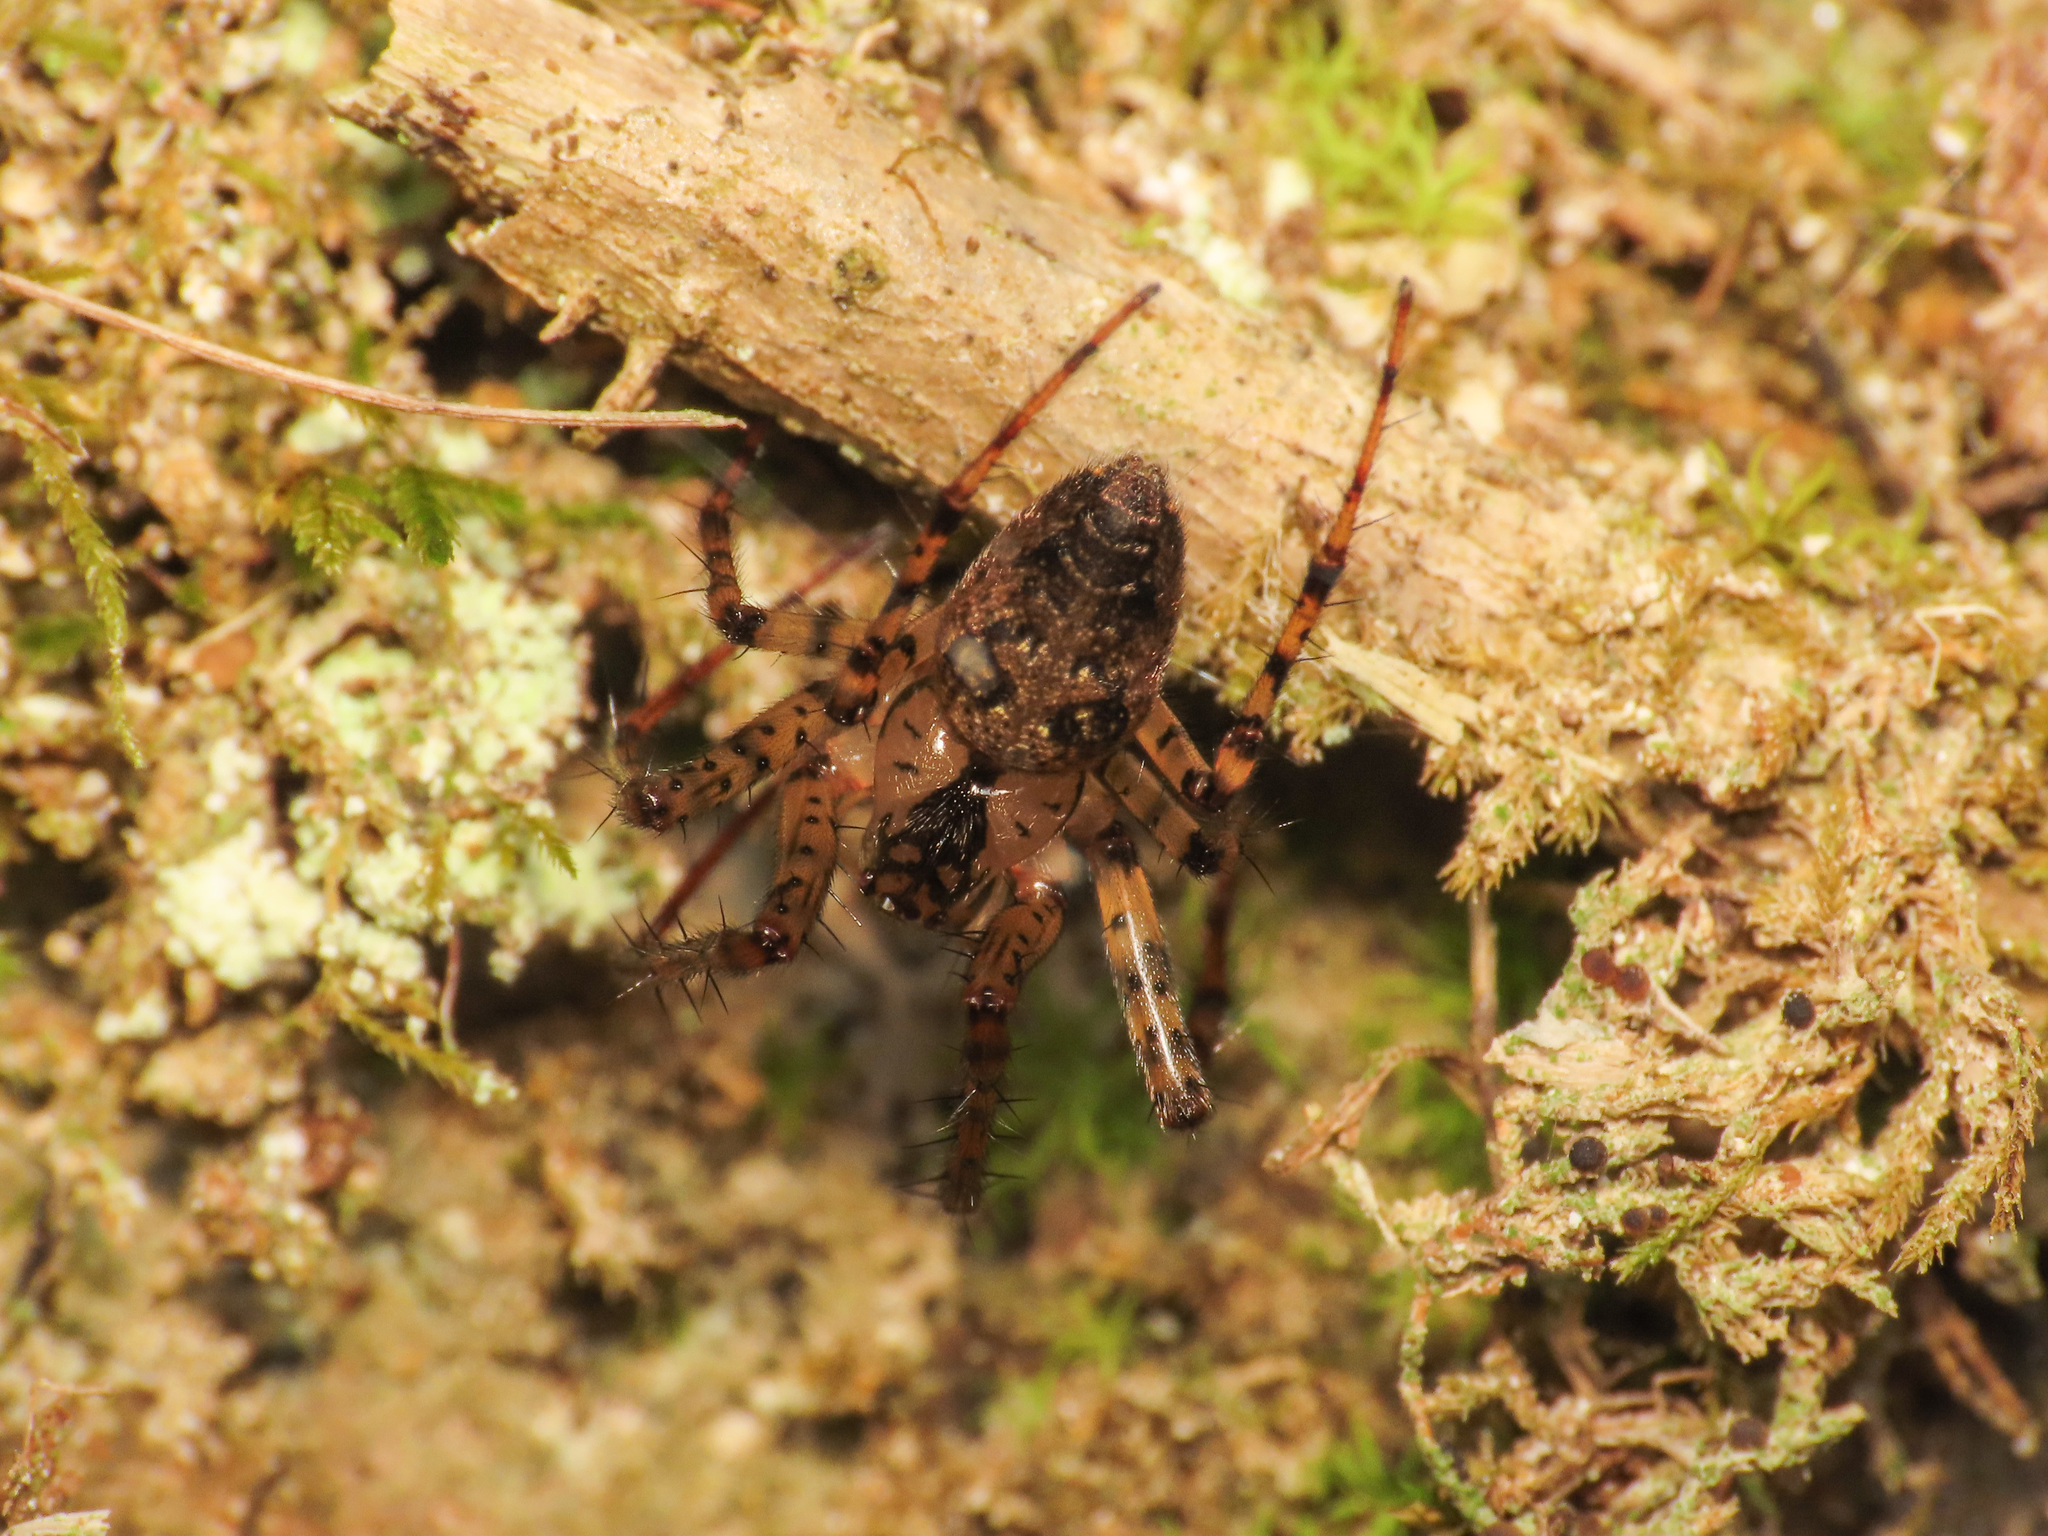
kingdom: Animalia
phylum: Arthropoda
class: Arachnida
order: Araneae
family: Tetragnathidae
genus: Metellina
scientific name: Metellina merianae
